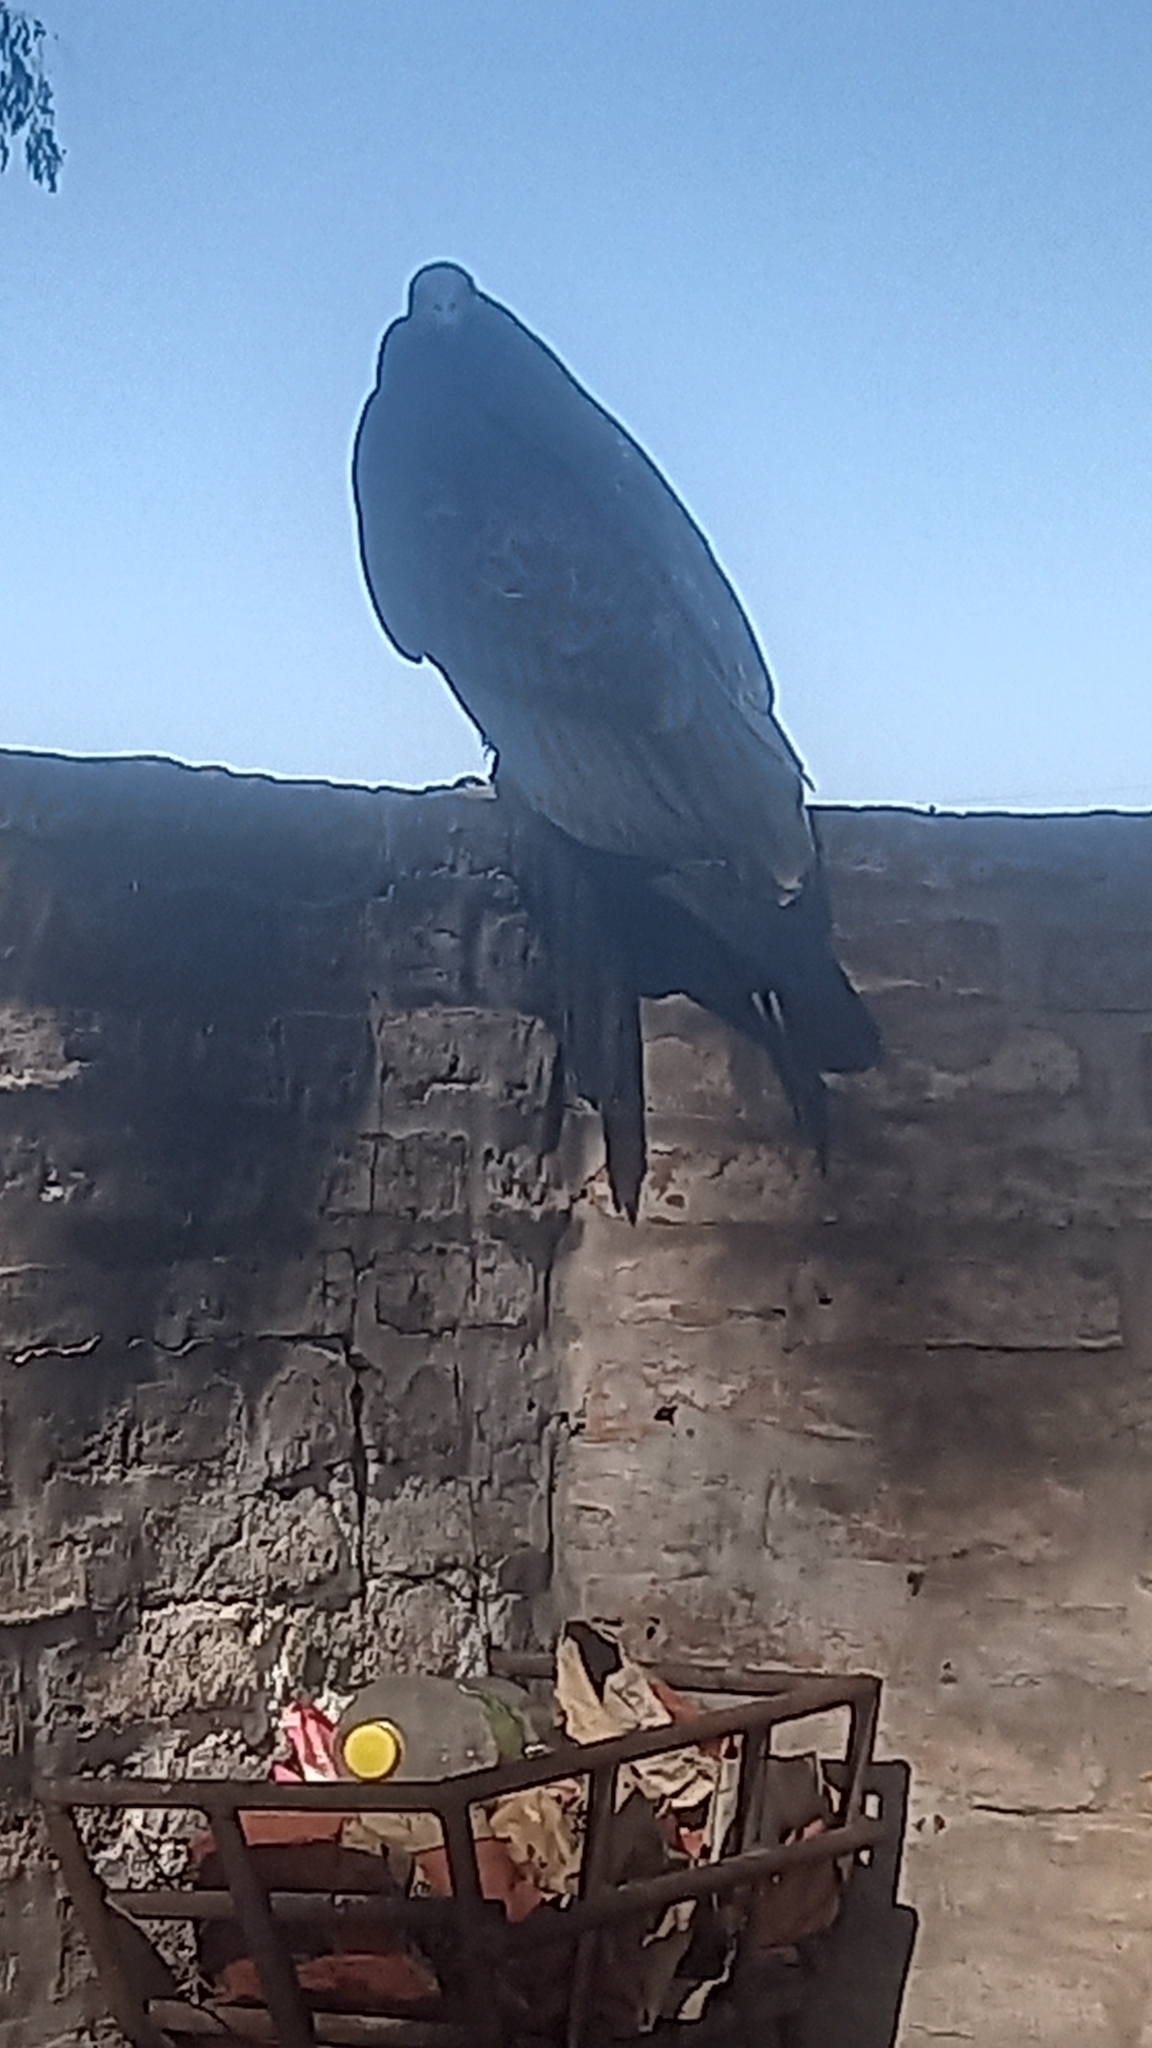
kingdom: Animalia
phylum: Chordata
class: Aves
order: Accipitriformes
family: Cathartidae
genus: Cathartes
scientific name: Cathartes aura
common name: Turkey vulture
